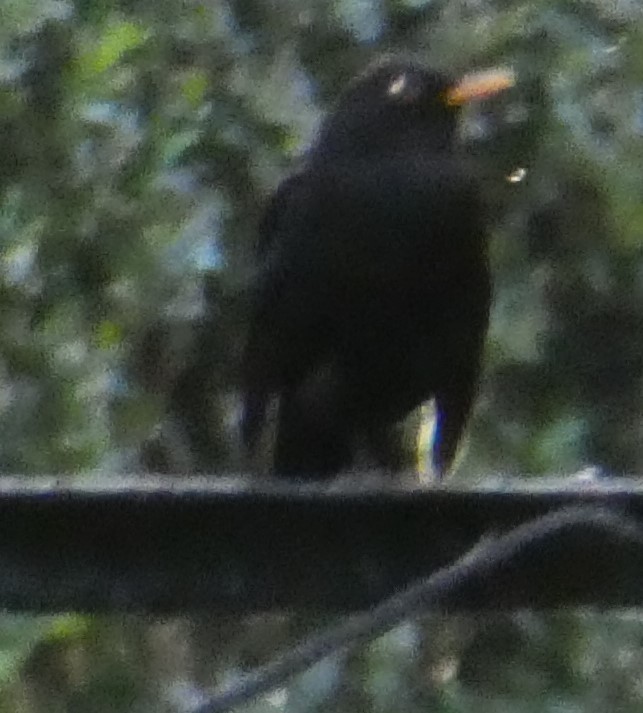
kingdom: Animalia
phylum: Chordata
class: Aves
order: Passeriformes
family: Turdidae
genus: Turdus
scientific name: Turdus merula
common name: Common blackbird
